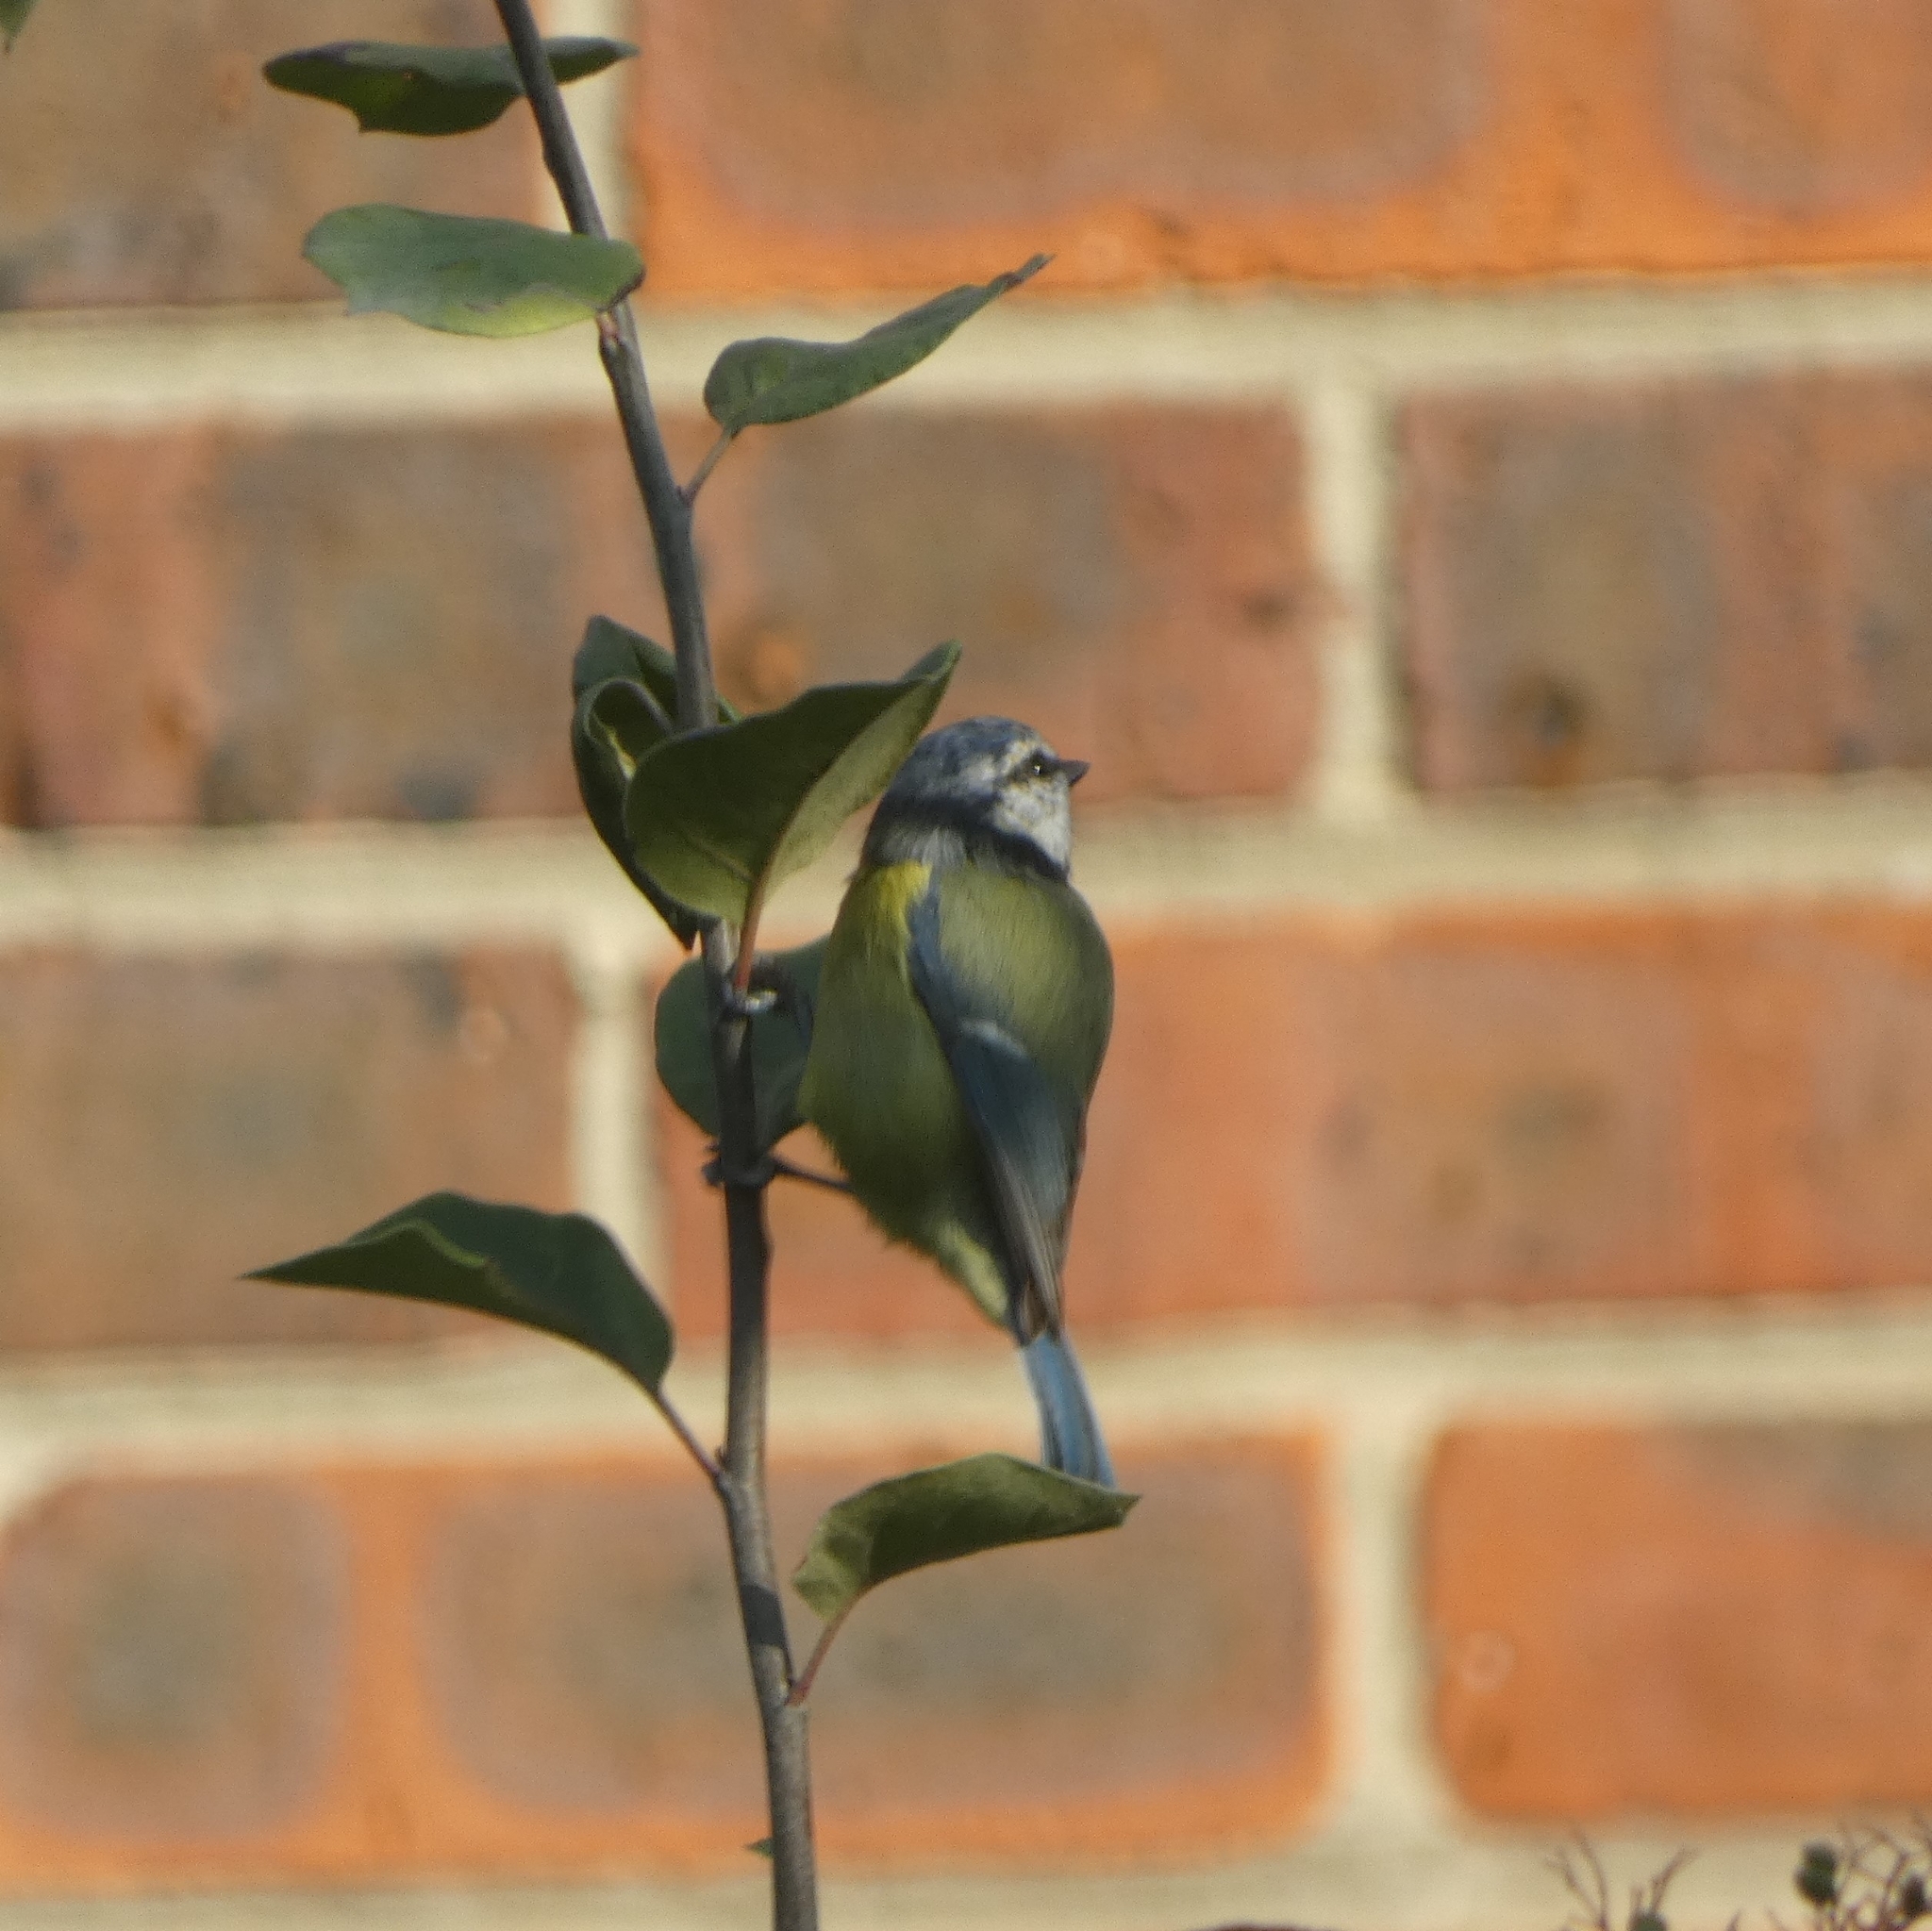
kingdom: Animalia
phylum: Chordata
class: Aves
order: Passeriformes
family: Paridae
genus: Cyanistes
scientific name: Cyanistes caeruleus
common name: Eurasian blue tit
